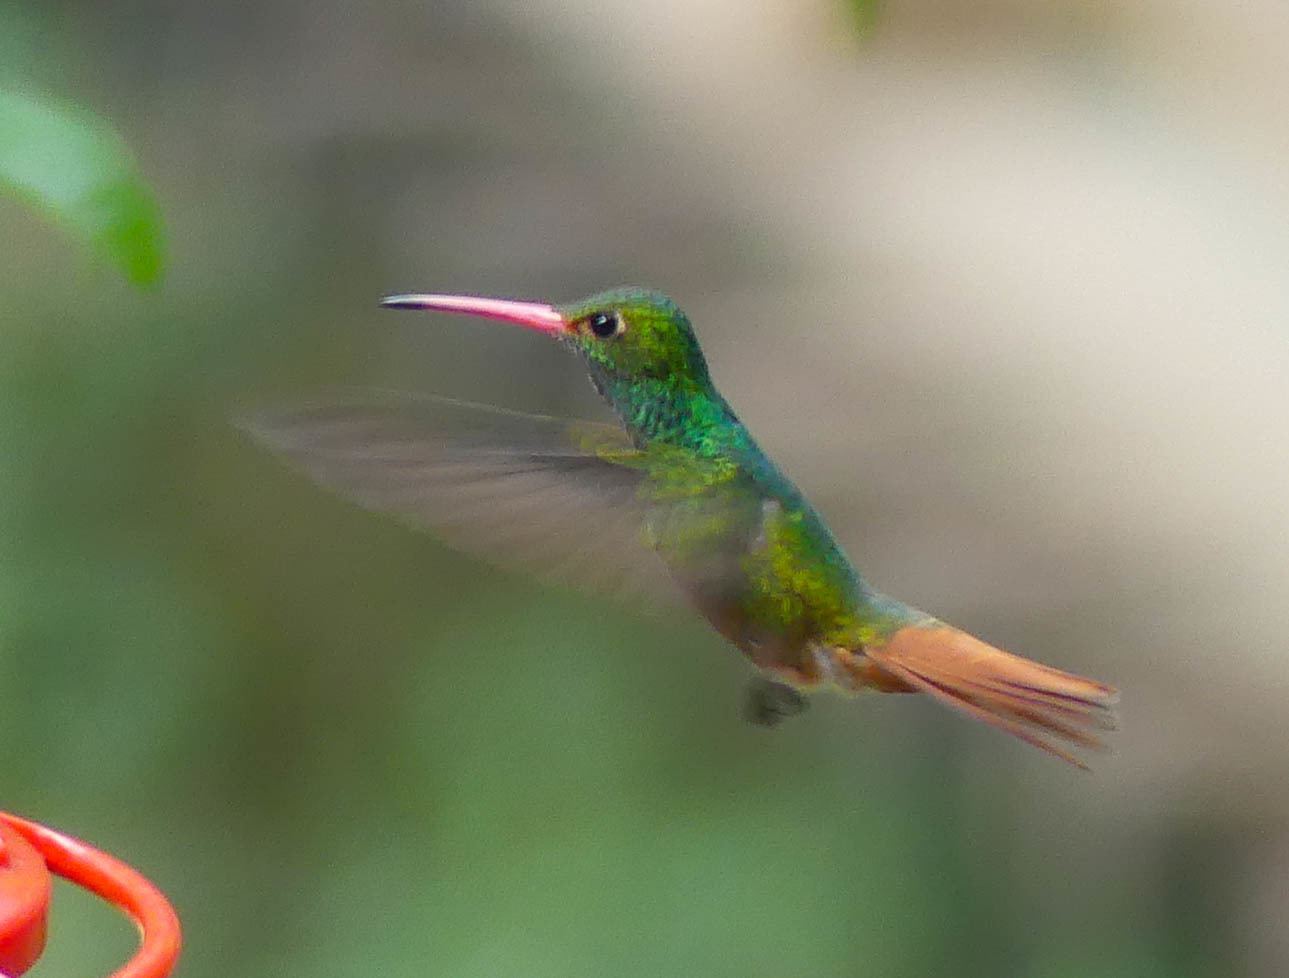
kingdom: Animalia
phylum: Chordata
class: Aves
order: Apodiformes
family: Trochilidae
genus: Amazilia
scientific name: Amazilia tzacatl
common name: Rufous-tailed hummingbird
